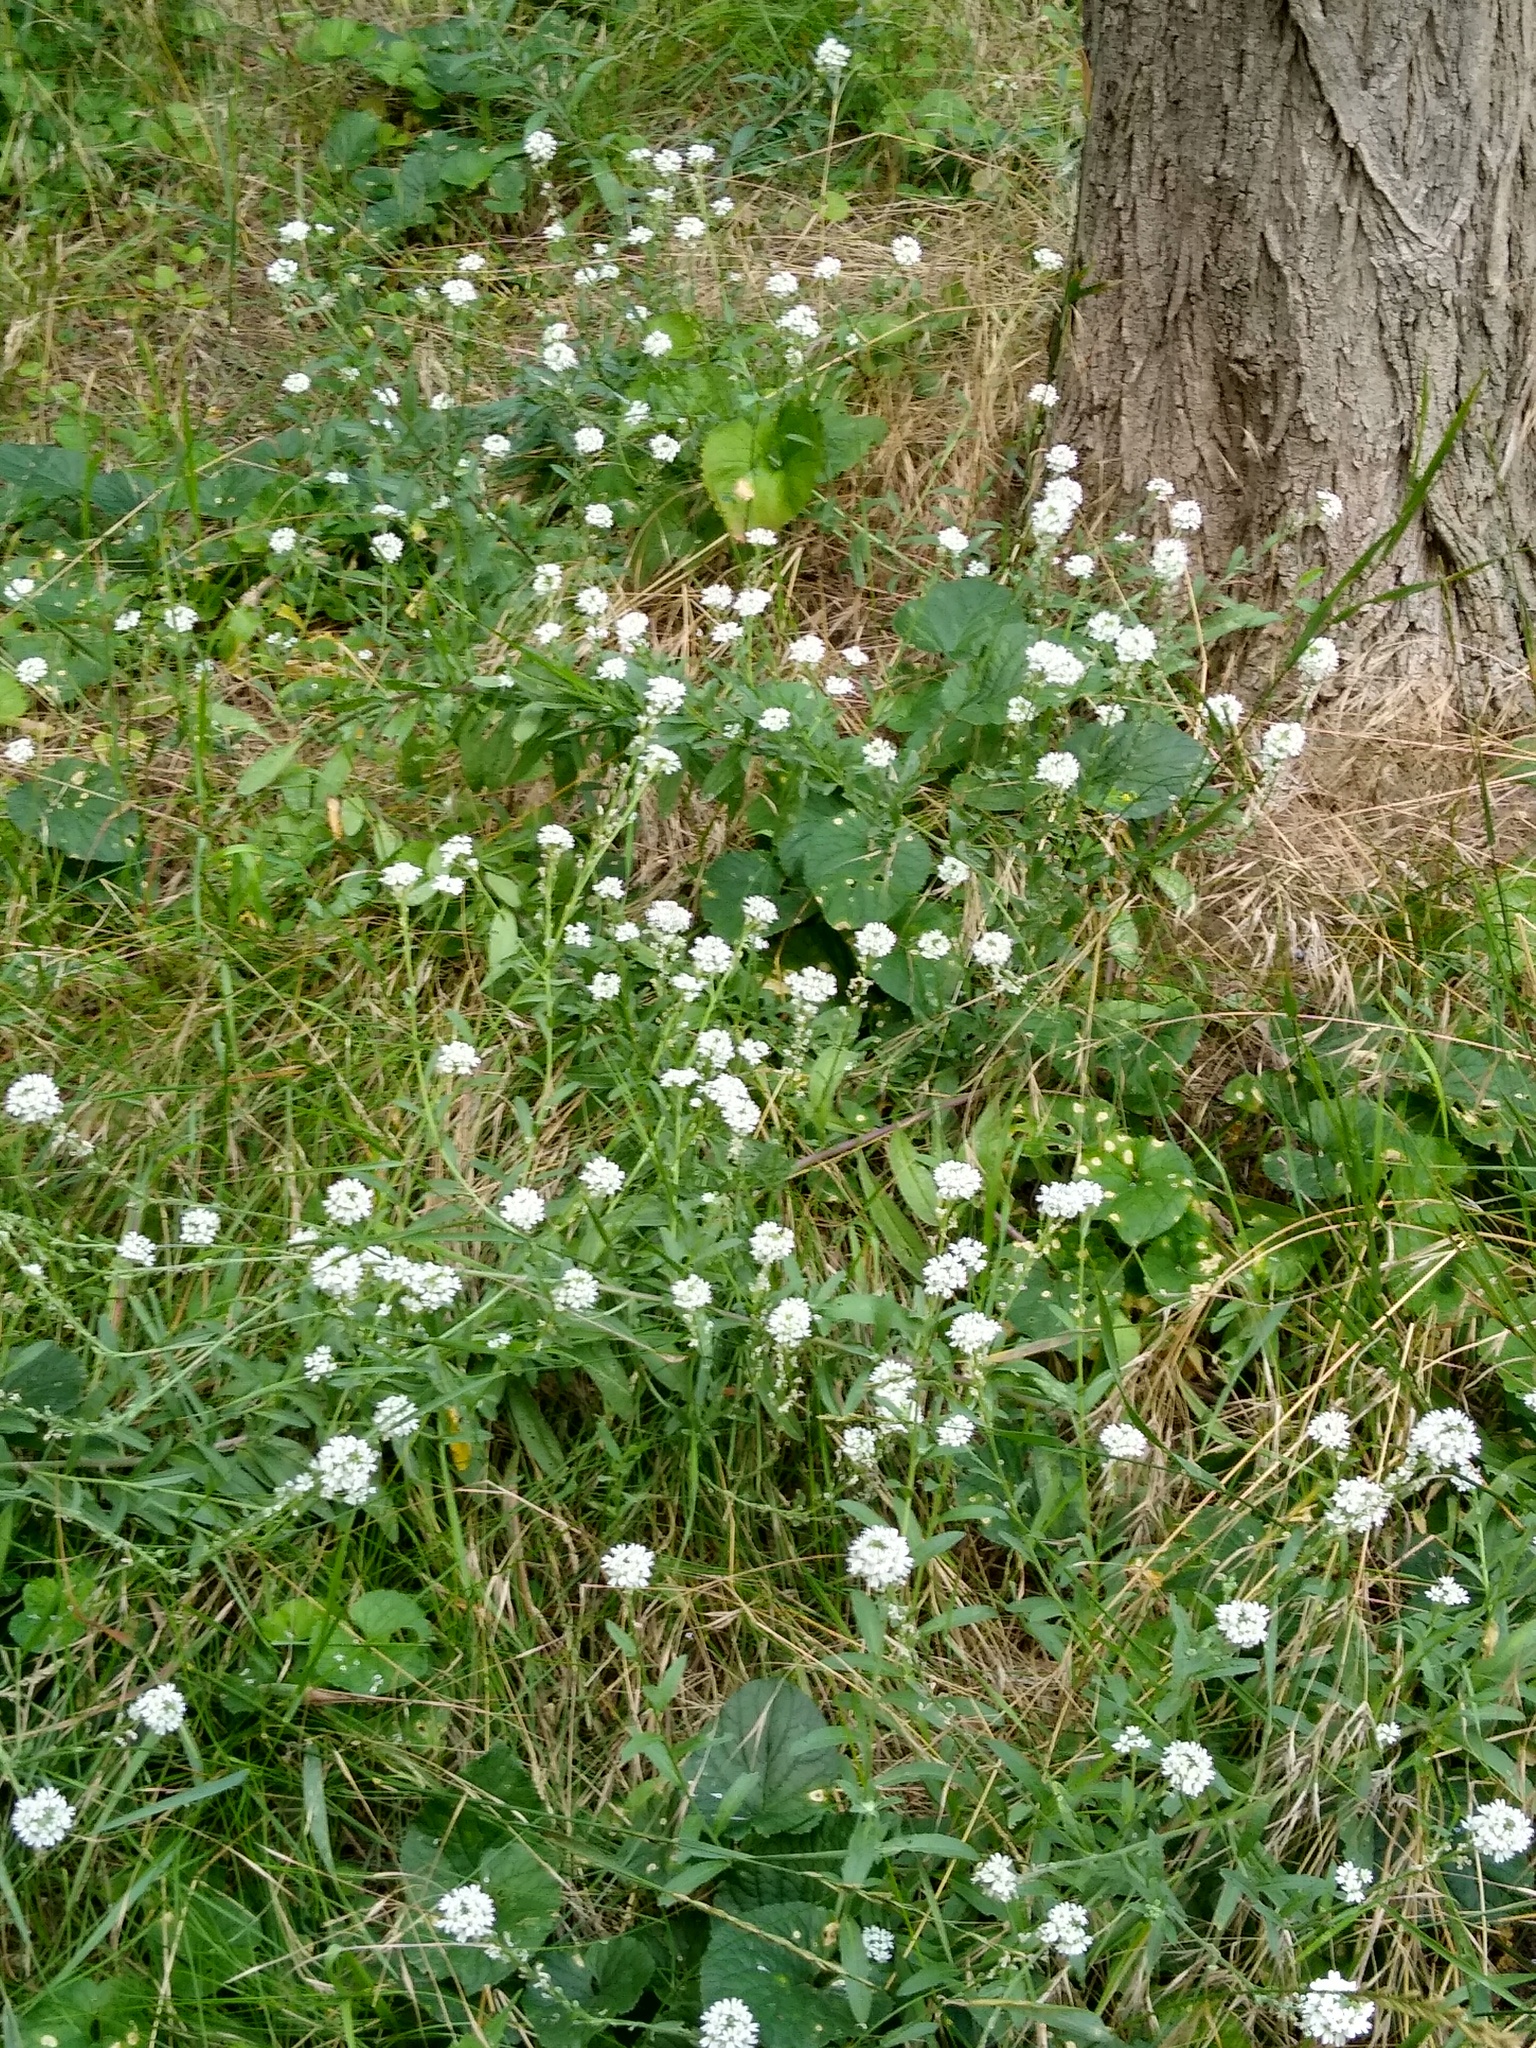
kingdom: Plantae
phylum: Tracheophyta
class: Magnoliopsida
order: Brassicales
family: Brassicaceae
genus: Berteroa
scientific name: Berteroa incana
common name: Hoary alison
